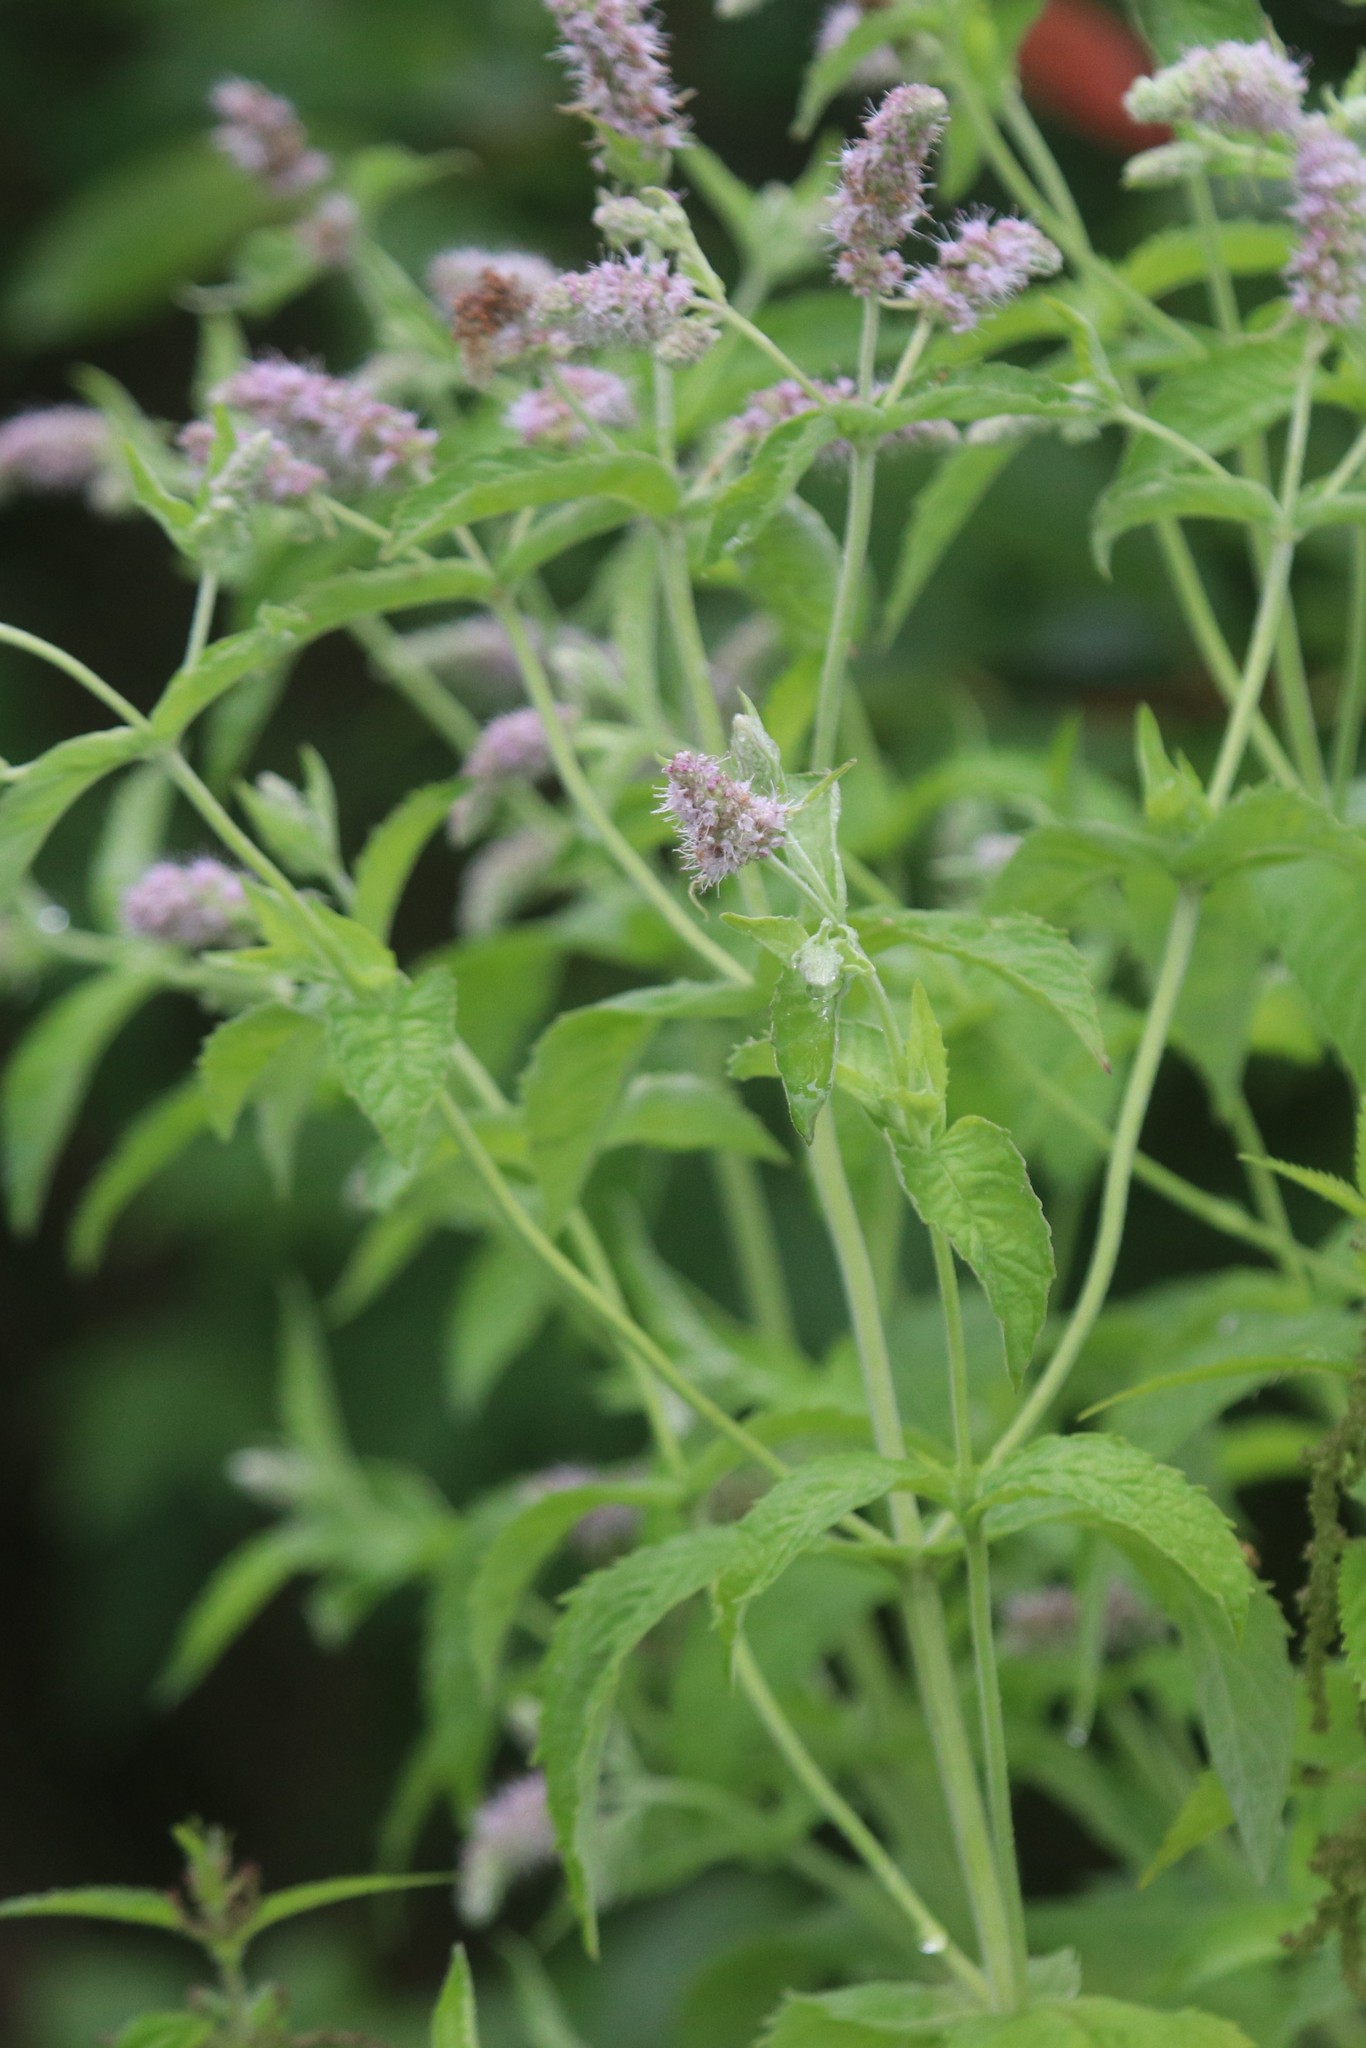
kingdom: Plantae
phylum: Tracheophyta
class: Magnoliopsida
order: Lamiales
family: Lamiaceae
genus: Mentha
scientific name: Mentha longifolia
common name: Horse mint
